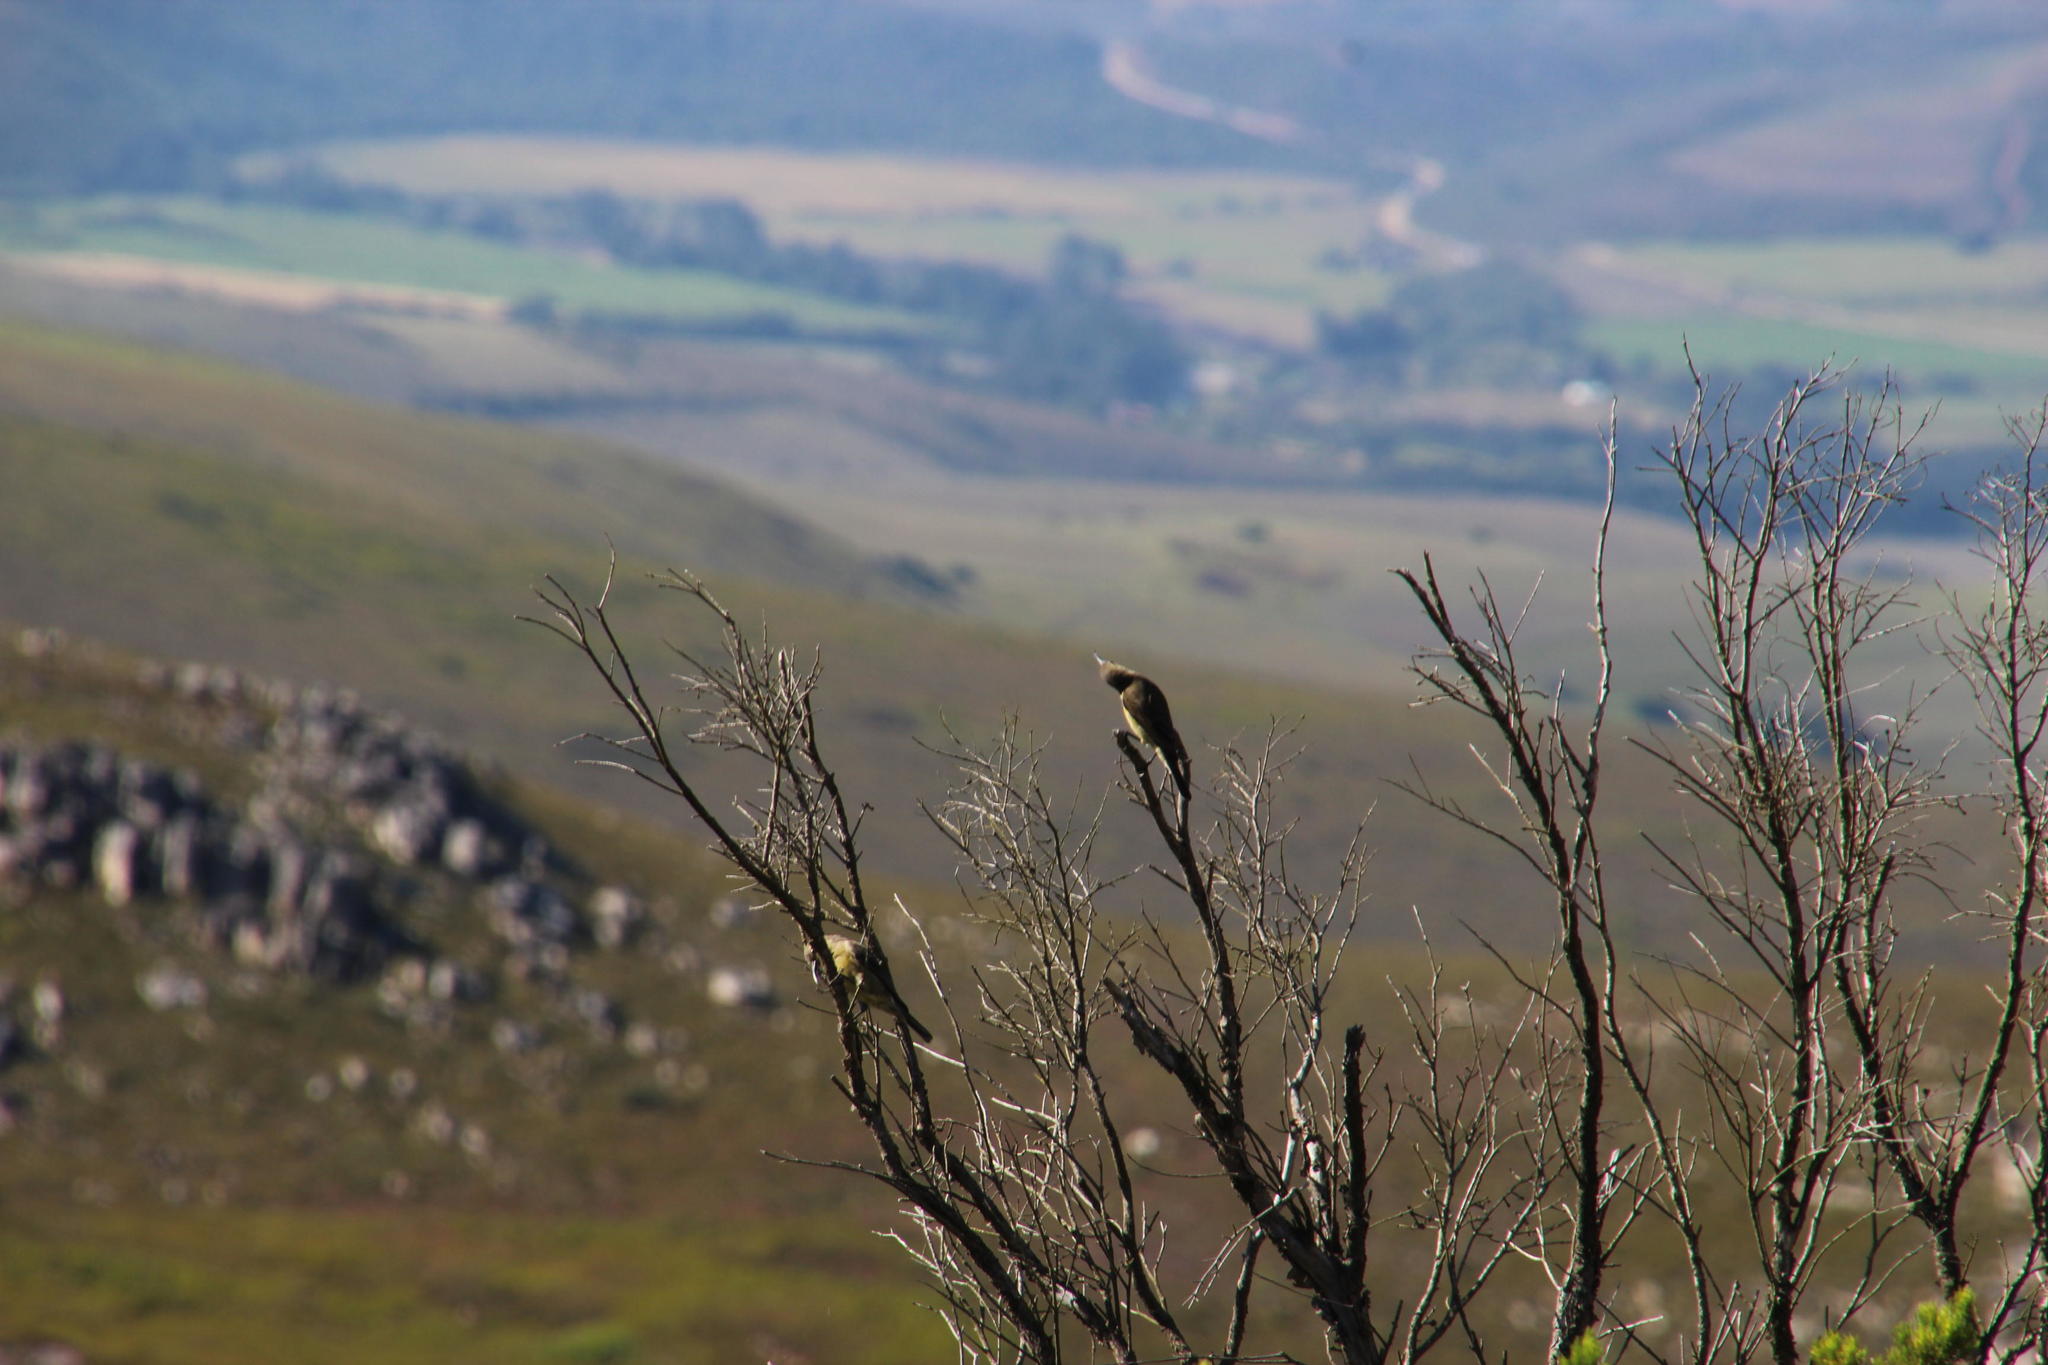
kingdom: Animalia
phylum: Chordata
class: Aves
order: Passeriformes
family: Promeropidae
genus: Promerops
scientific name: Promerops cafer
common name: Cape sugarbird
